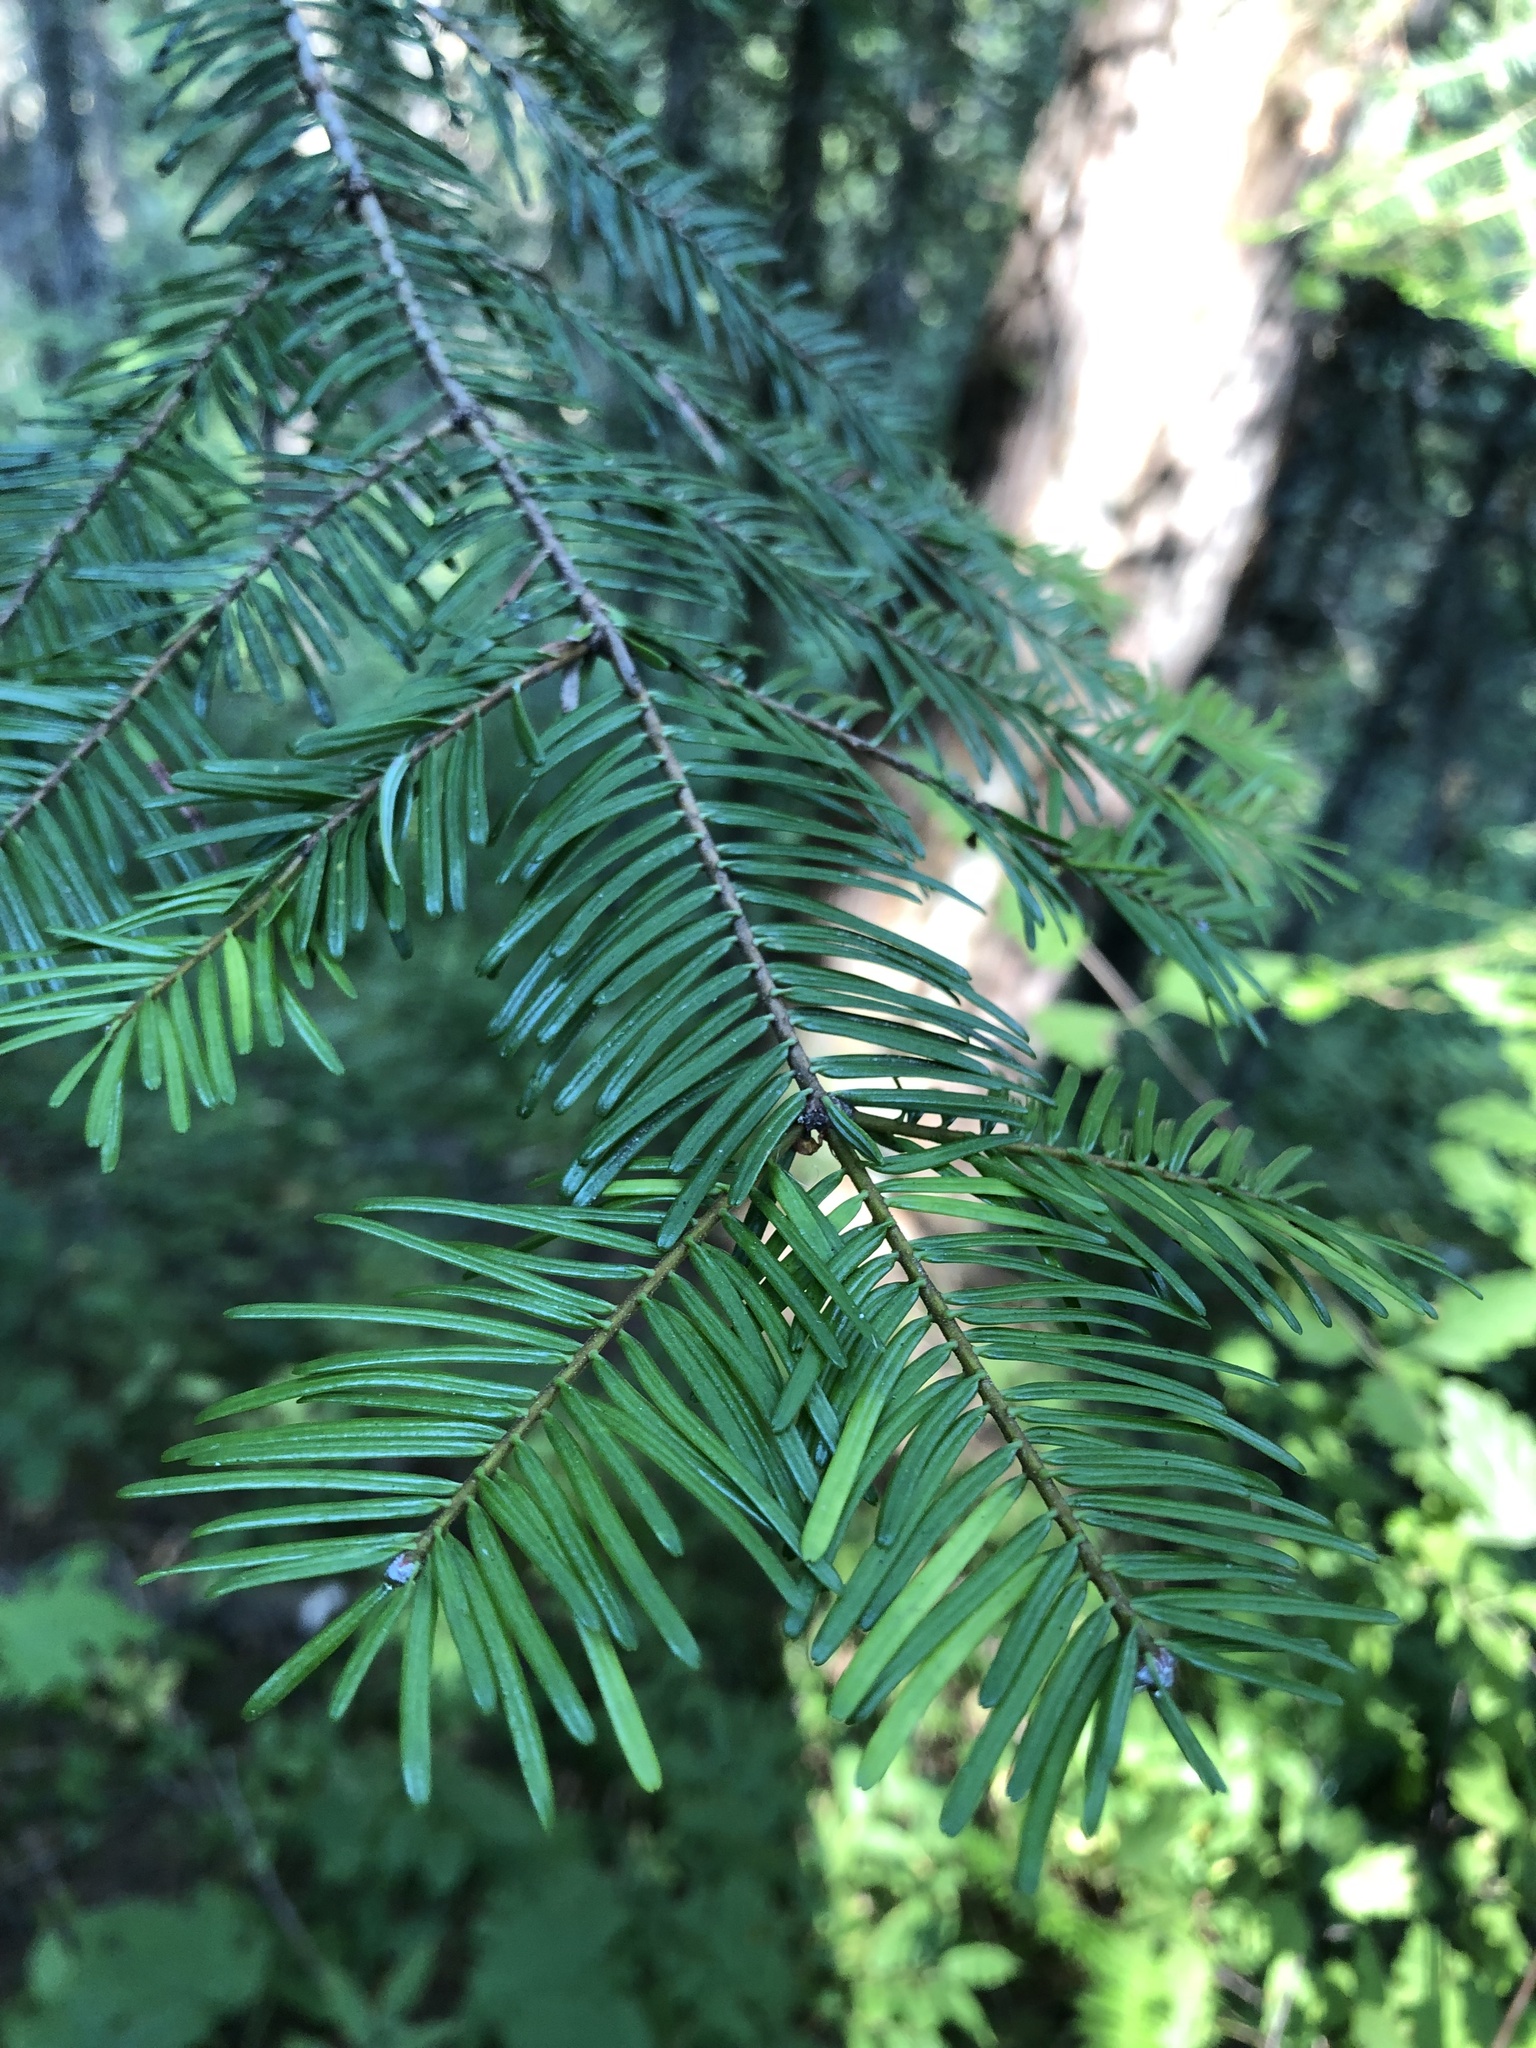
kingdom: Plantae
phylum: Tracheophyta
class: Pinopsida
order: Pinales
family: Pinaceae
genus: Abies
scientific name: Abies grandis
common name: Giant fir
